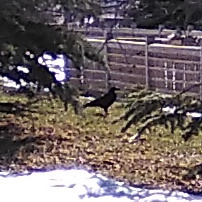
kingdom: Animalia
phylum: Chordata
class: Aves
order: Passeriformes
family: Corvidae
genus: Corvus
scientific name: Corvus brachyrhynchos
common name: American crow
